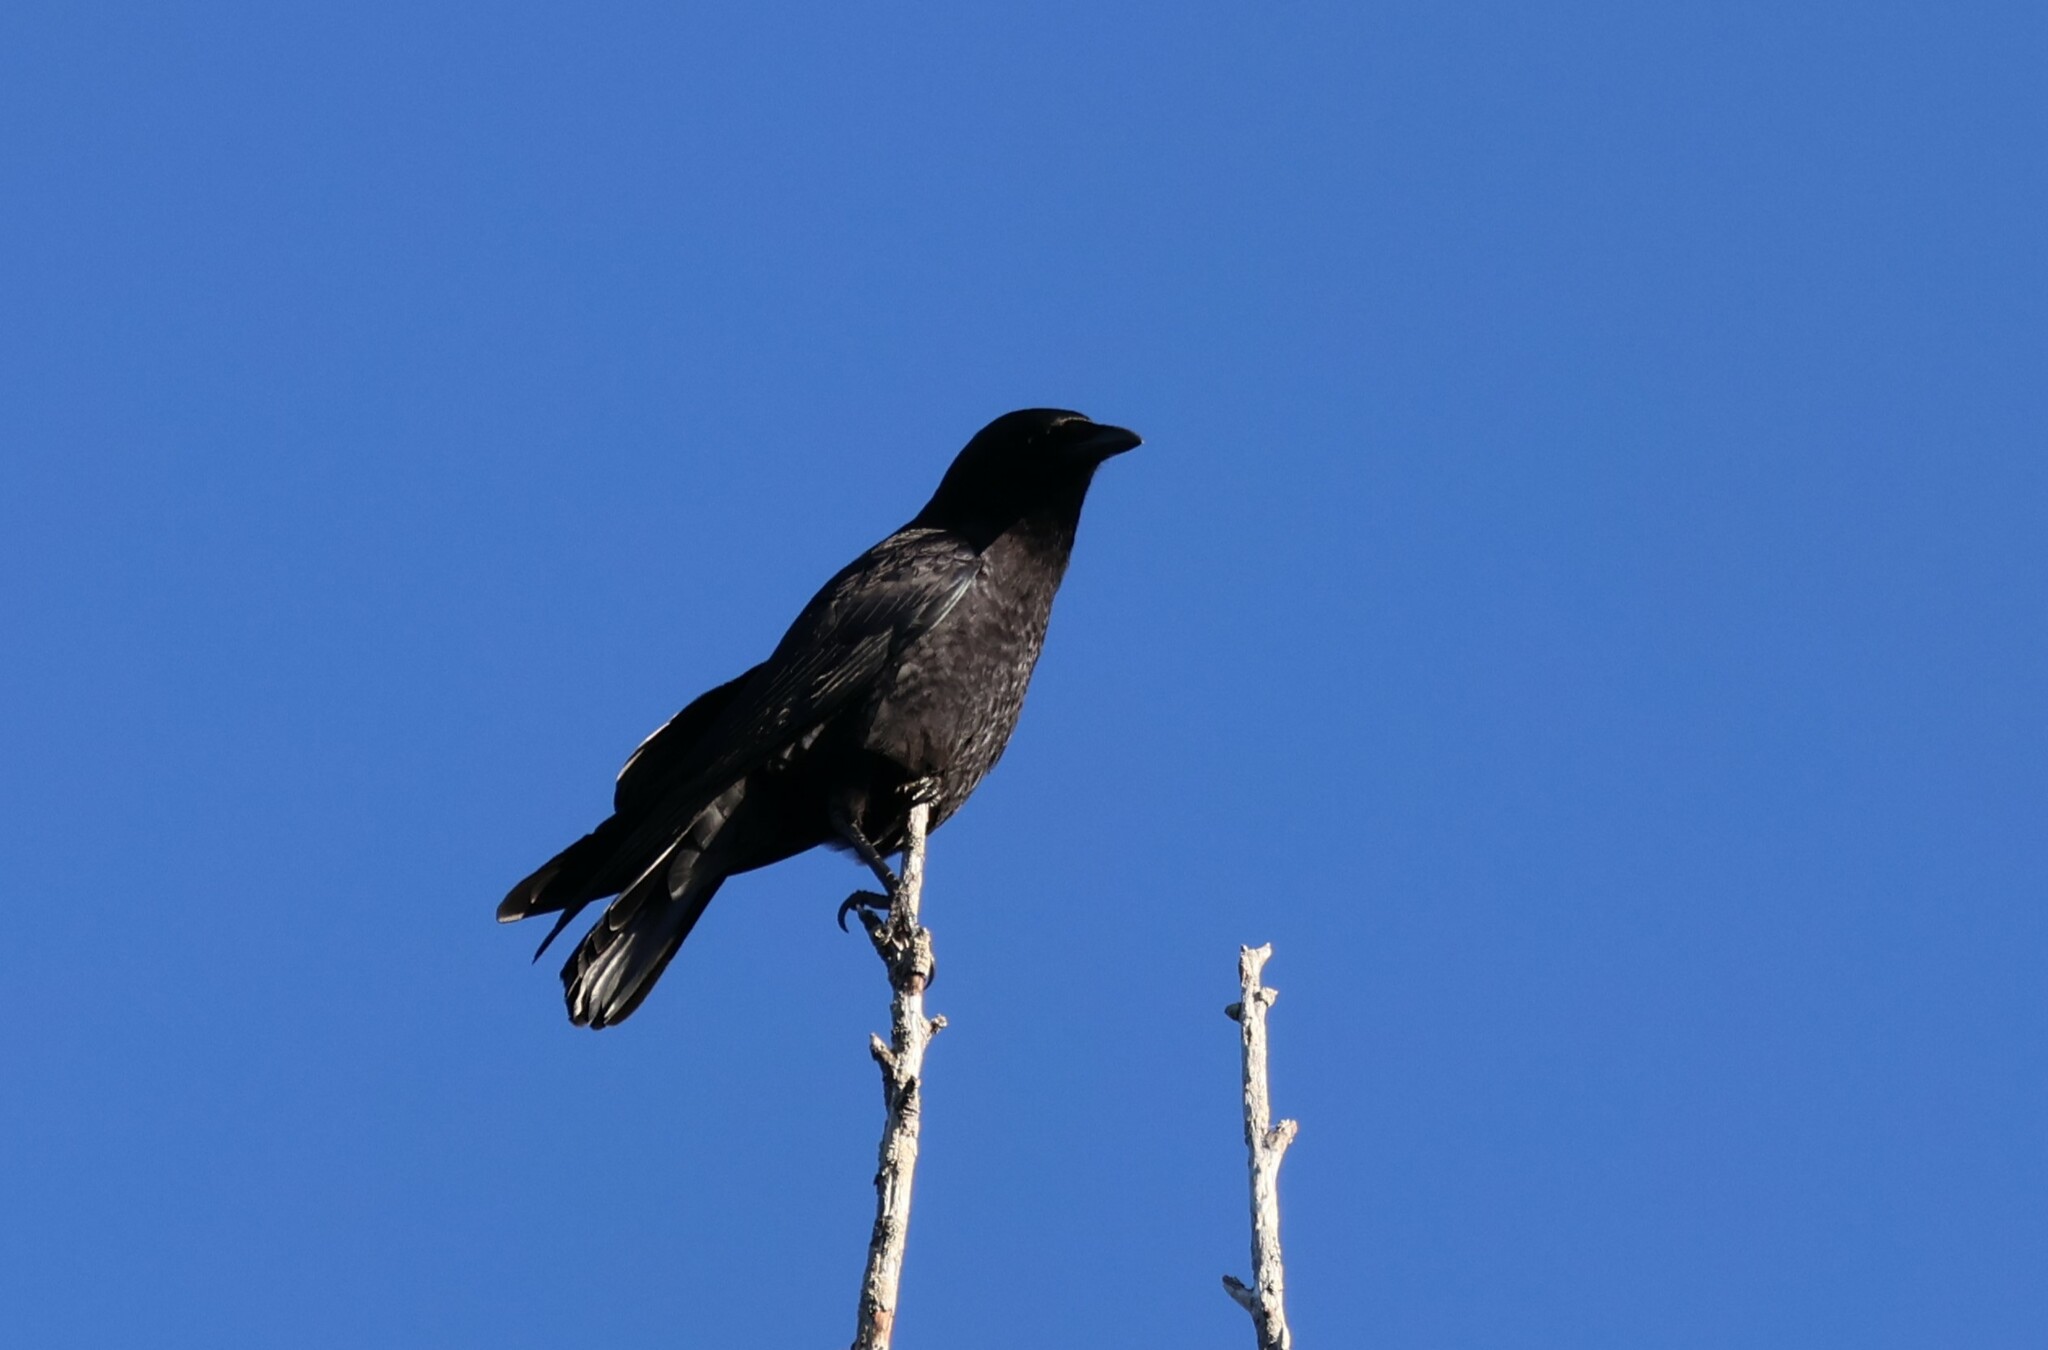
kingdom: Animalia
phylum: Chordata
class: Aves
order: Passeriformes
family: Corvidae
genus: Corvus
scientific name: Corvus brachyrhynchos
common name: American crow
